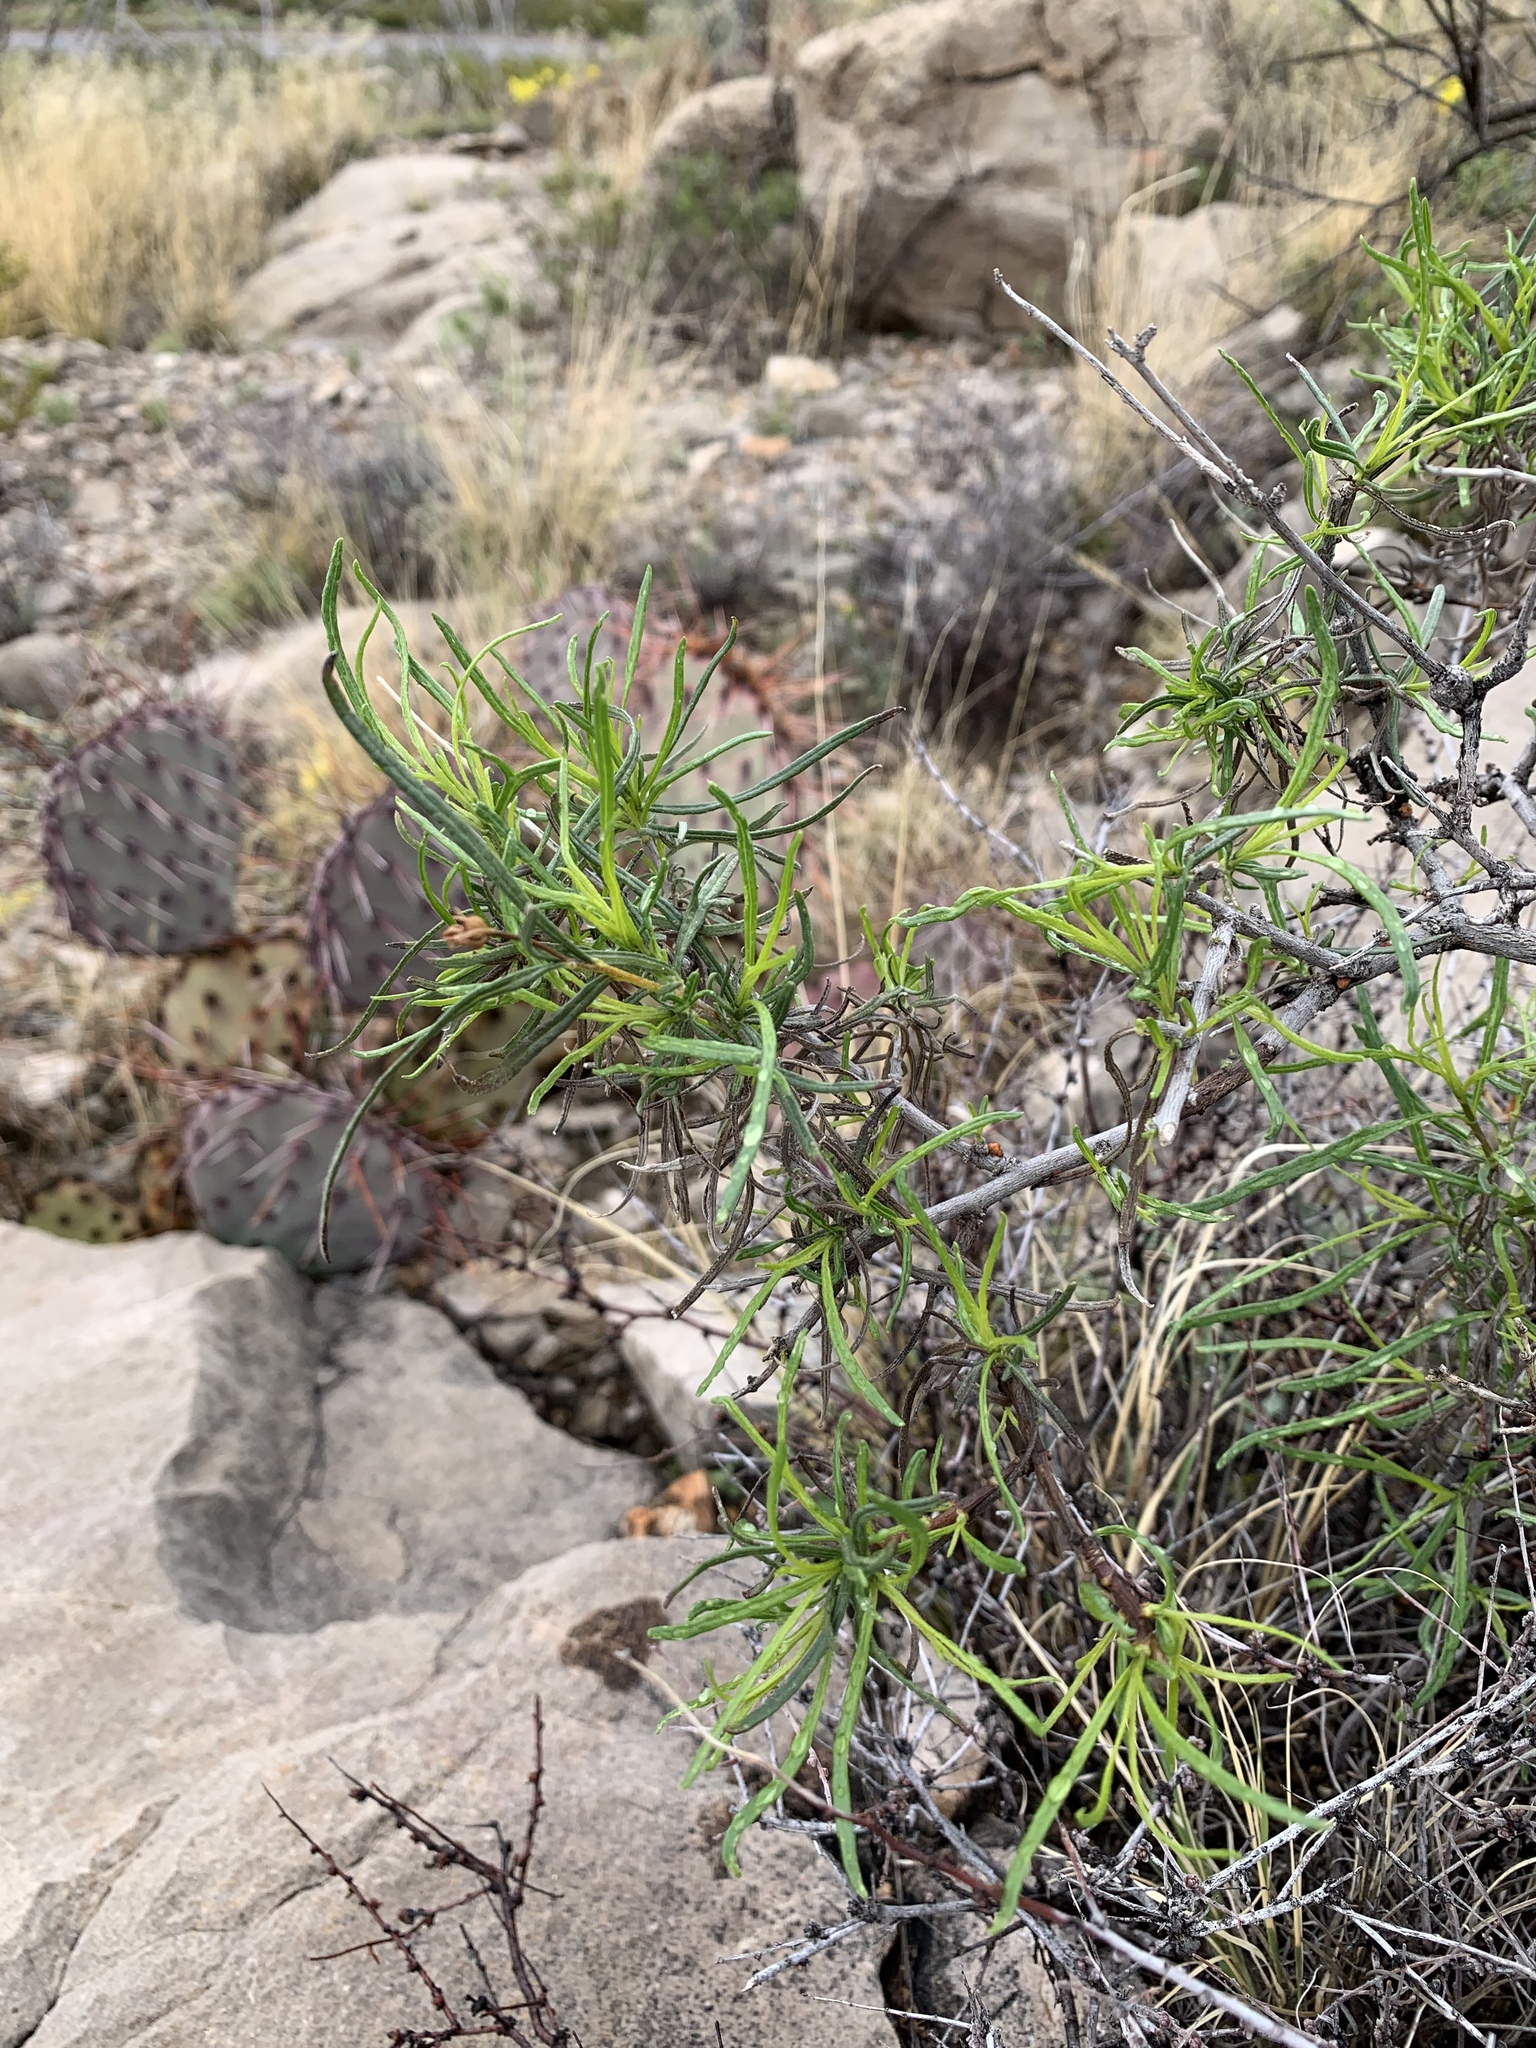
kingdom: Plantae
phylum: Tracheophyta
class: Magnoliopsida
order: Asterales
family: Asteraceae
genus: Sidneya
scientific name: Sidneya tenuifolia
